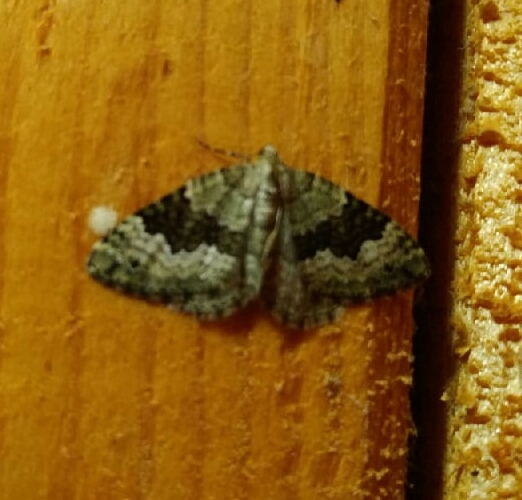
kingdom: Animalia
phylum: Arthropoda
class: Insecta
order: Lepidoptera
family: Geometridae
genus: Colostygia
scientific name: Colostygia aptata
